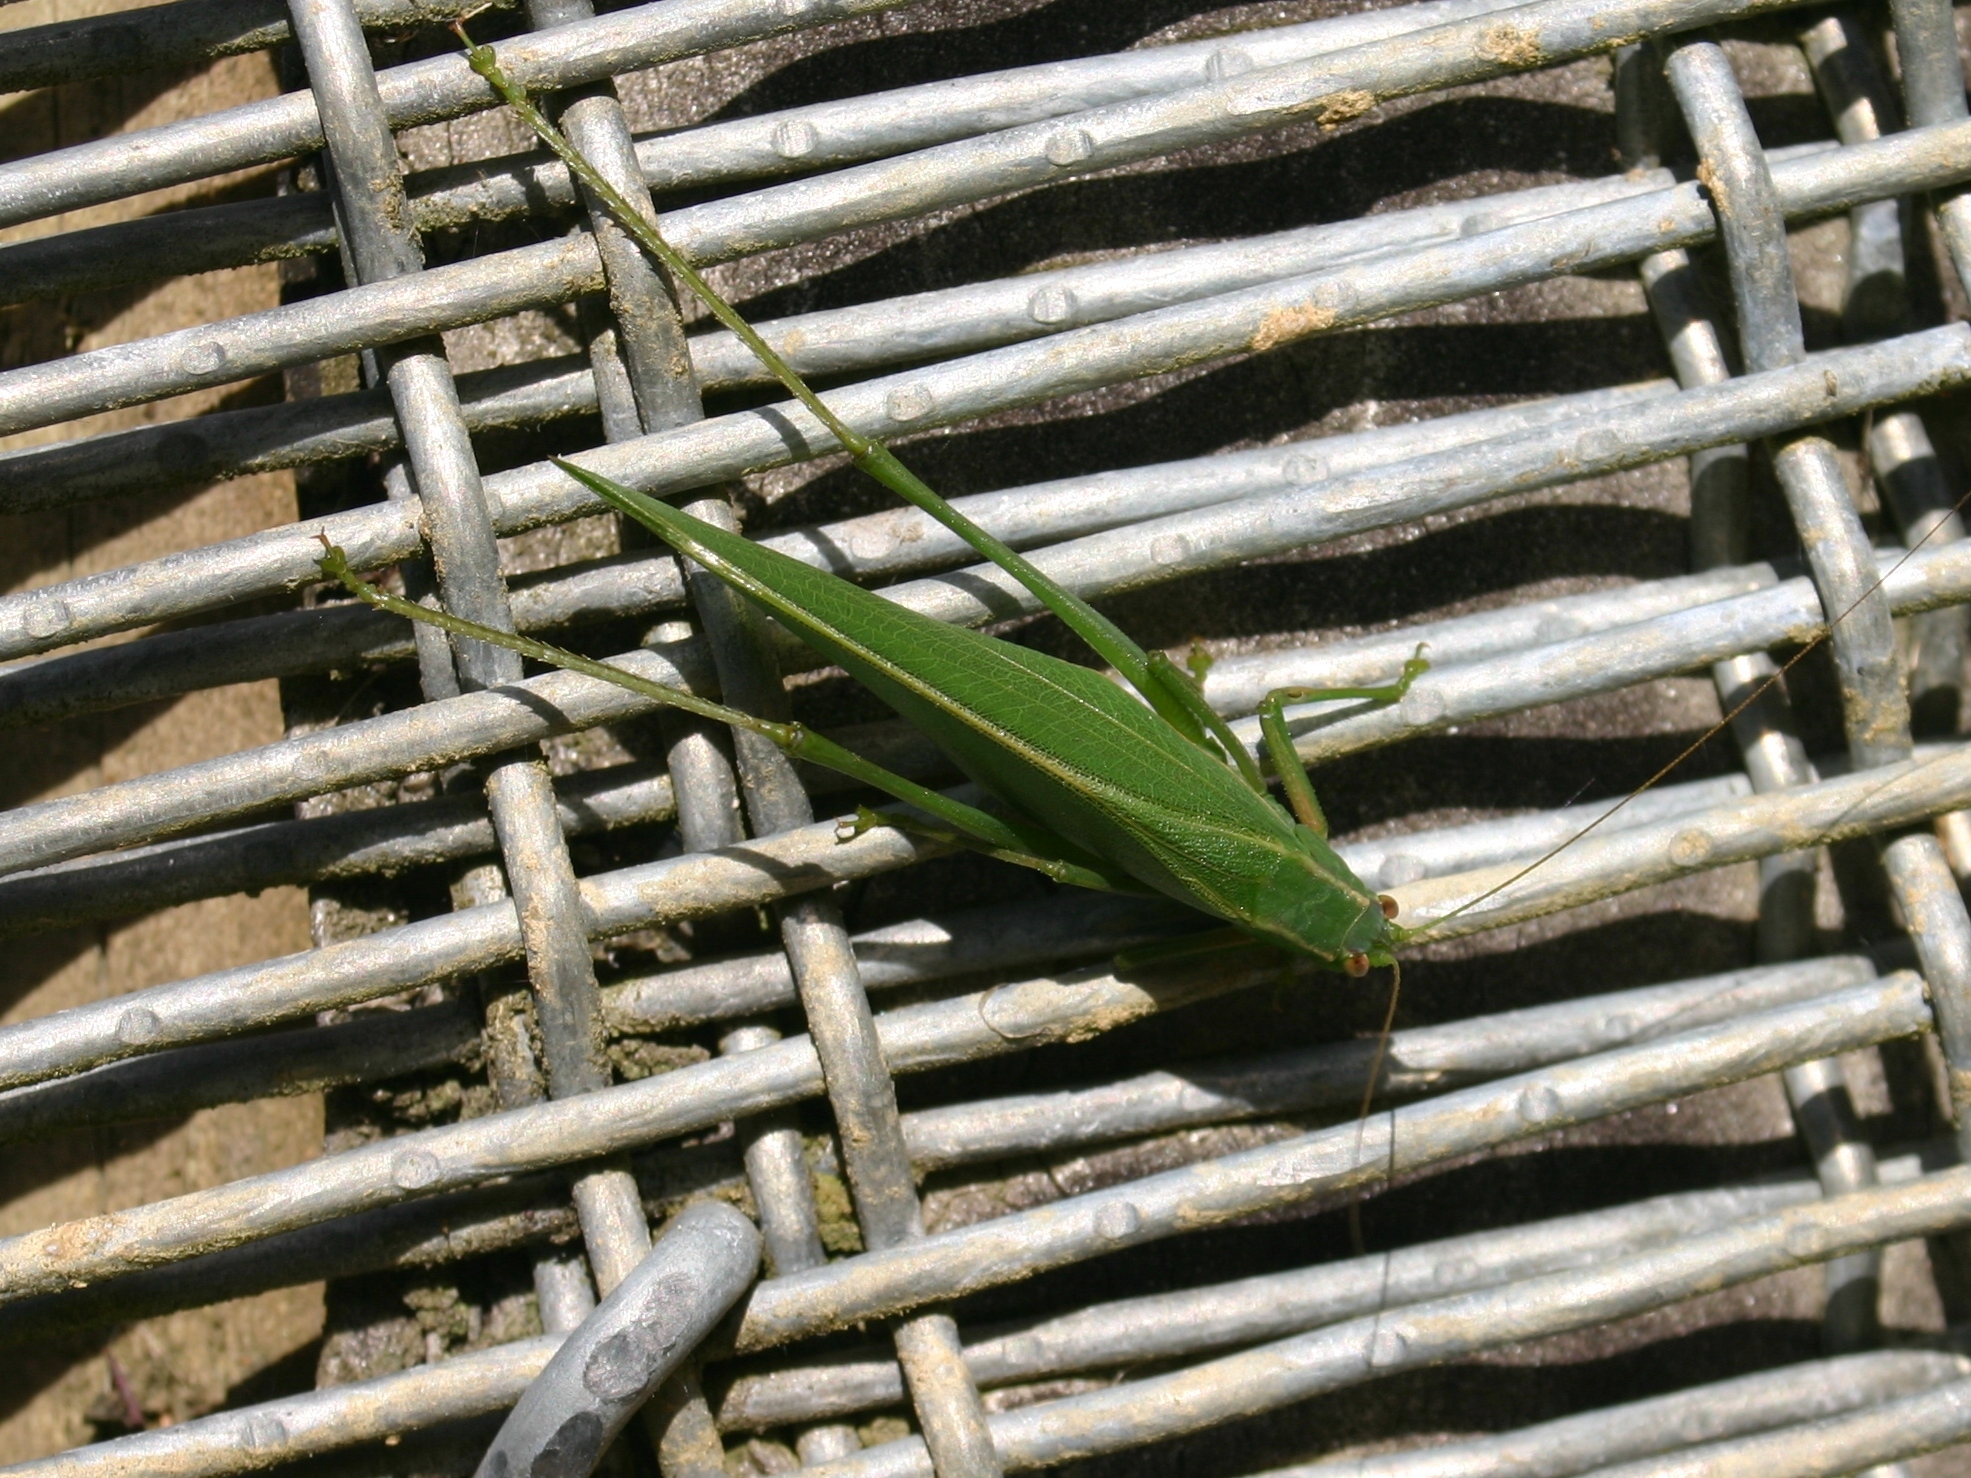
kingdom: Animalia
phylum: Arthropoda
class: Insecta
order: Orthoptera
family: Tettigoniidae
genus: Caedicia
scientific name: Caedicia simplex
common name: Common garden katydid
